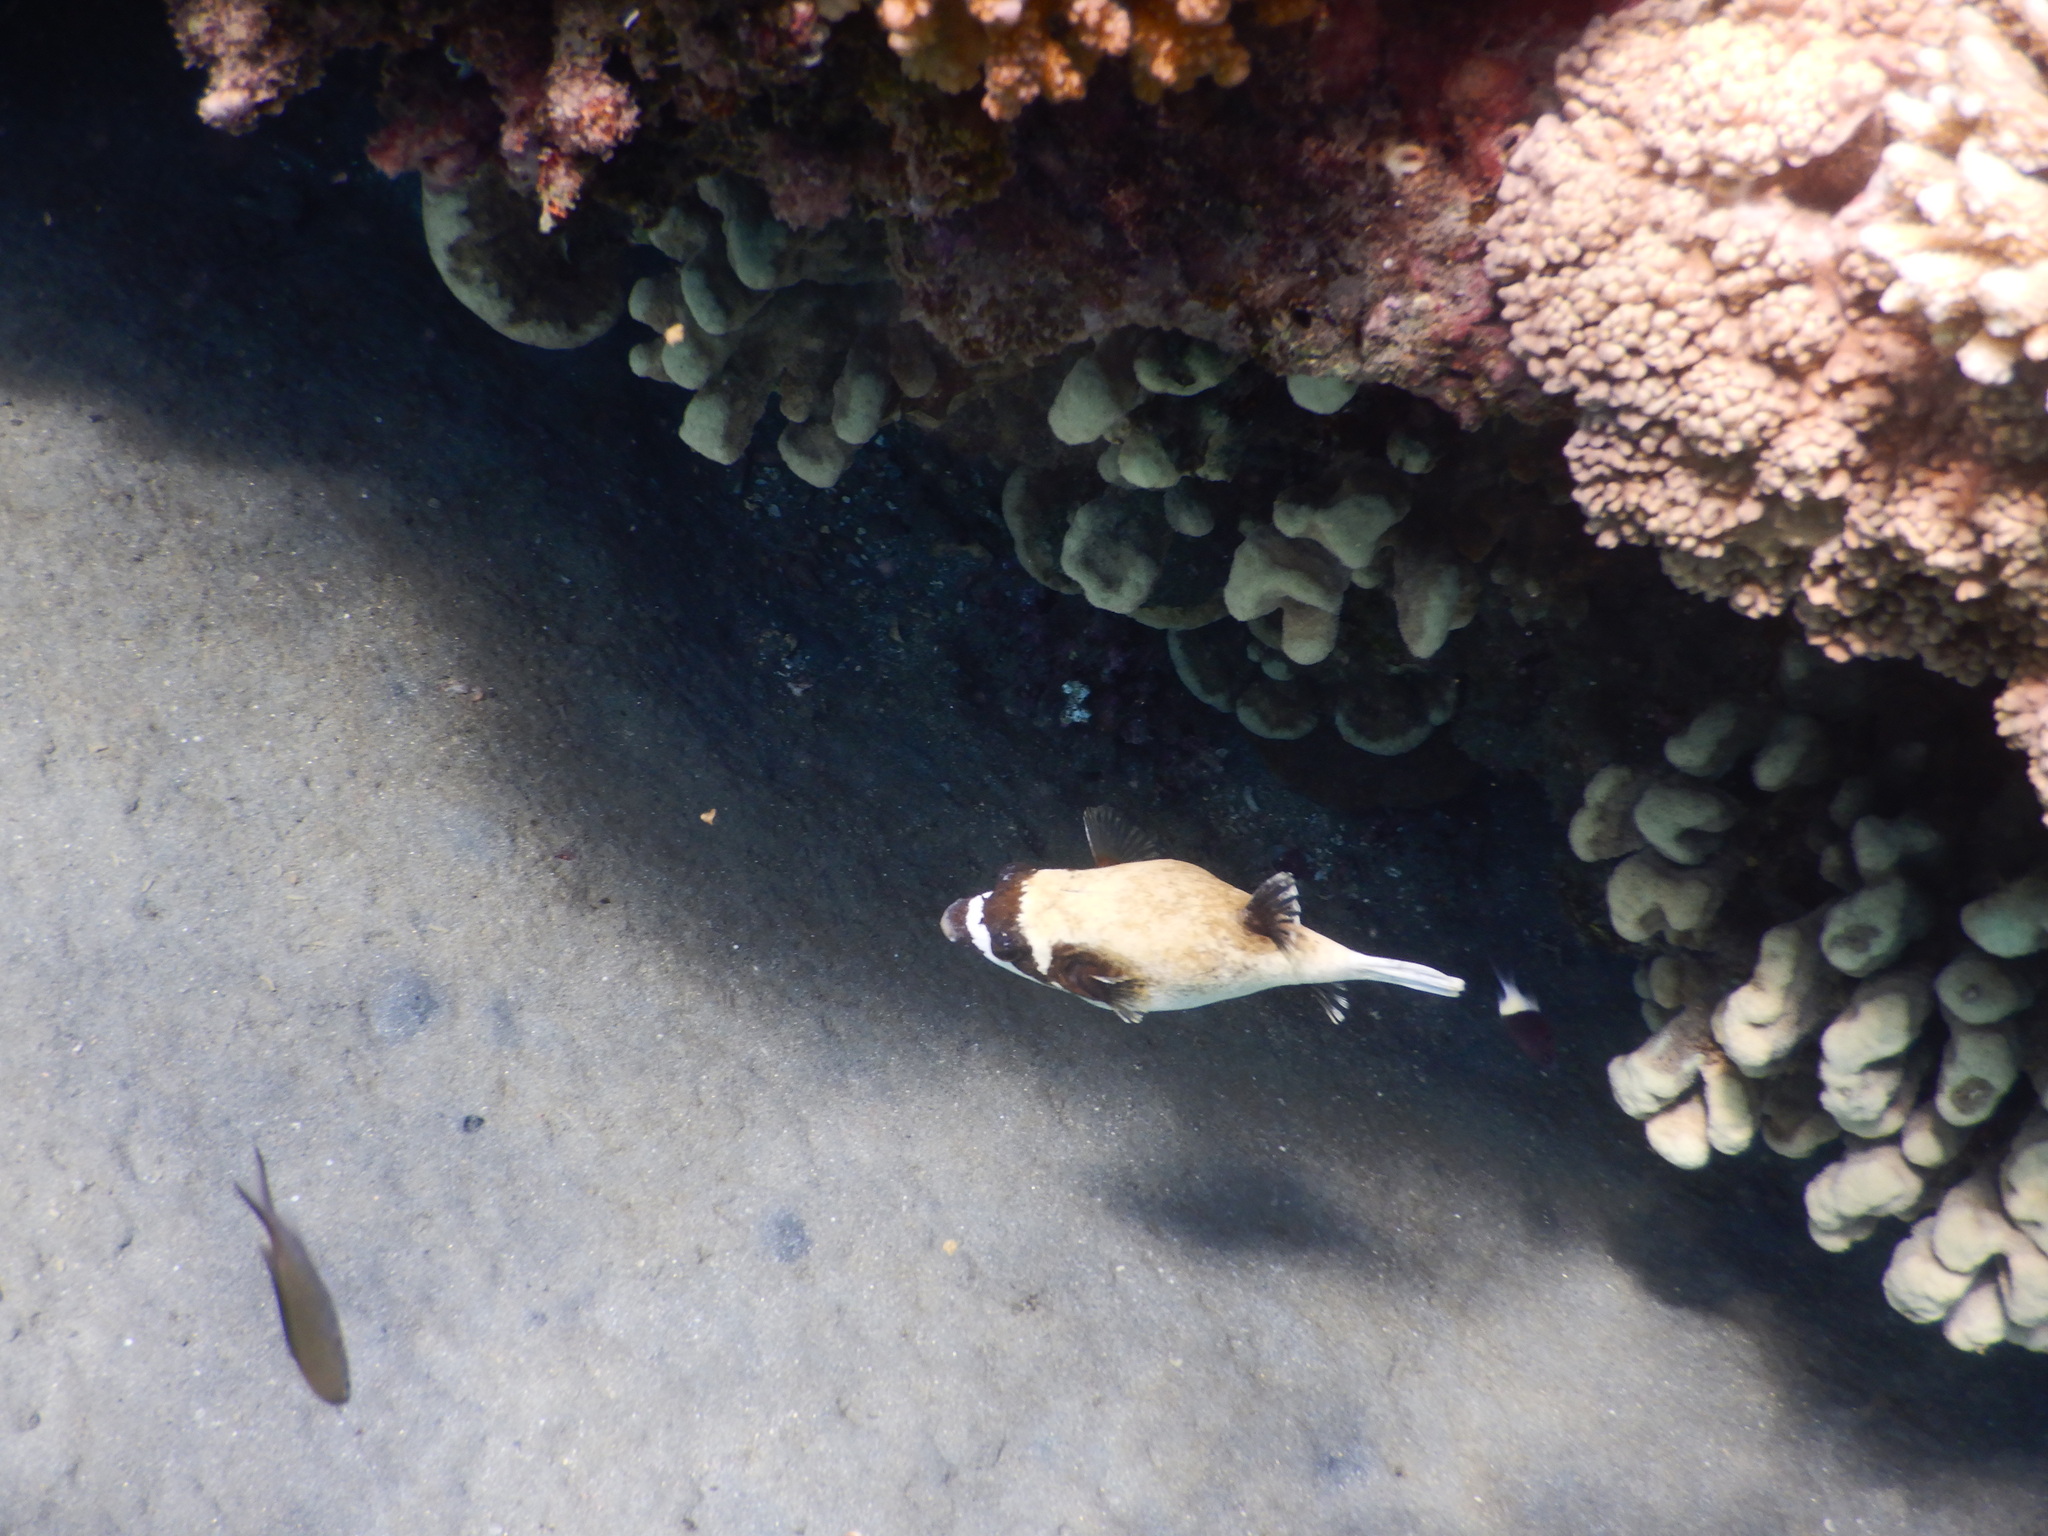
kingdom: Animalia
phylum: Chordata
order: Tetraodontiformes
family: Tetraodontidae
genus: Arothron
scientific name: Arothron diadematus
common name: Masked puffer
